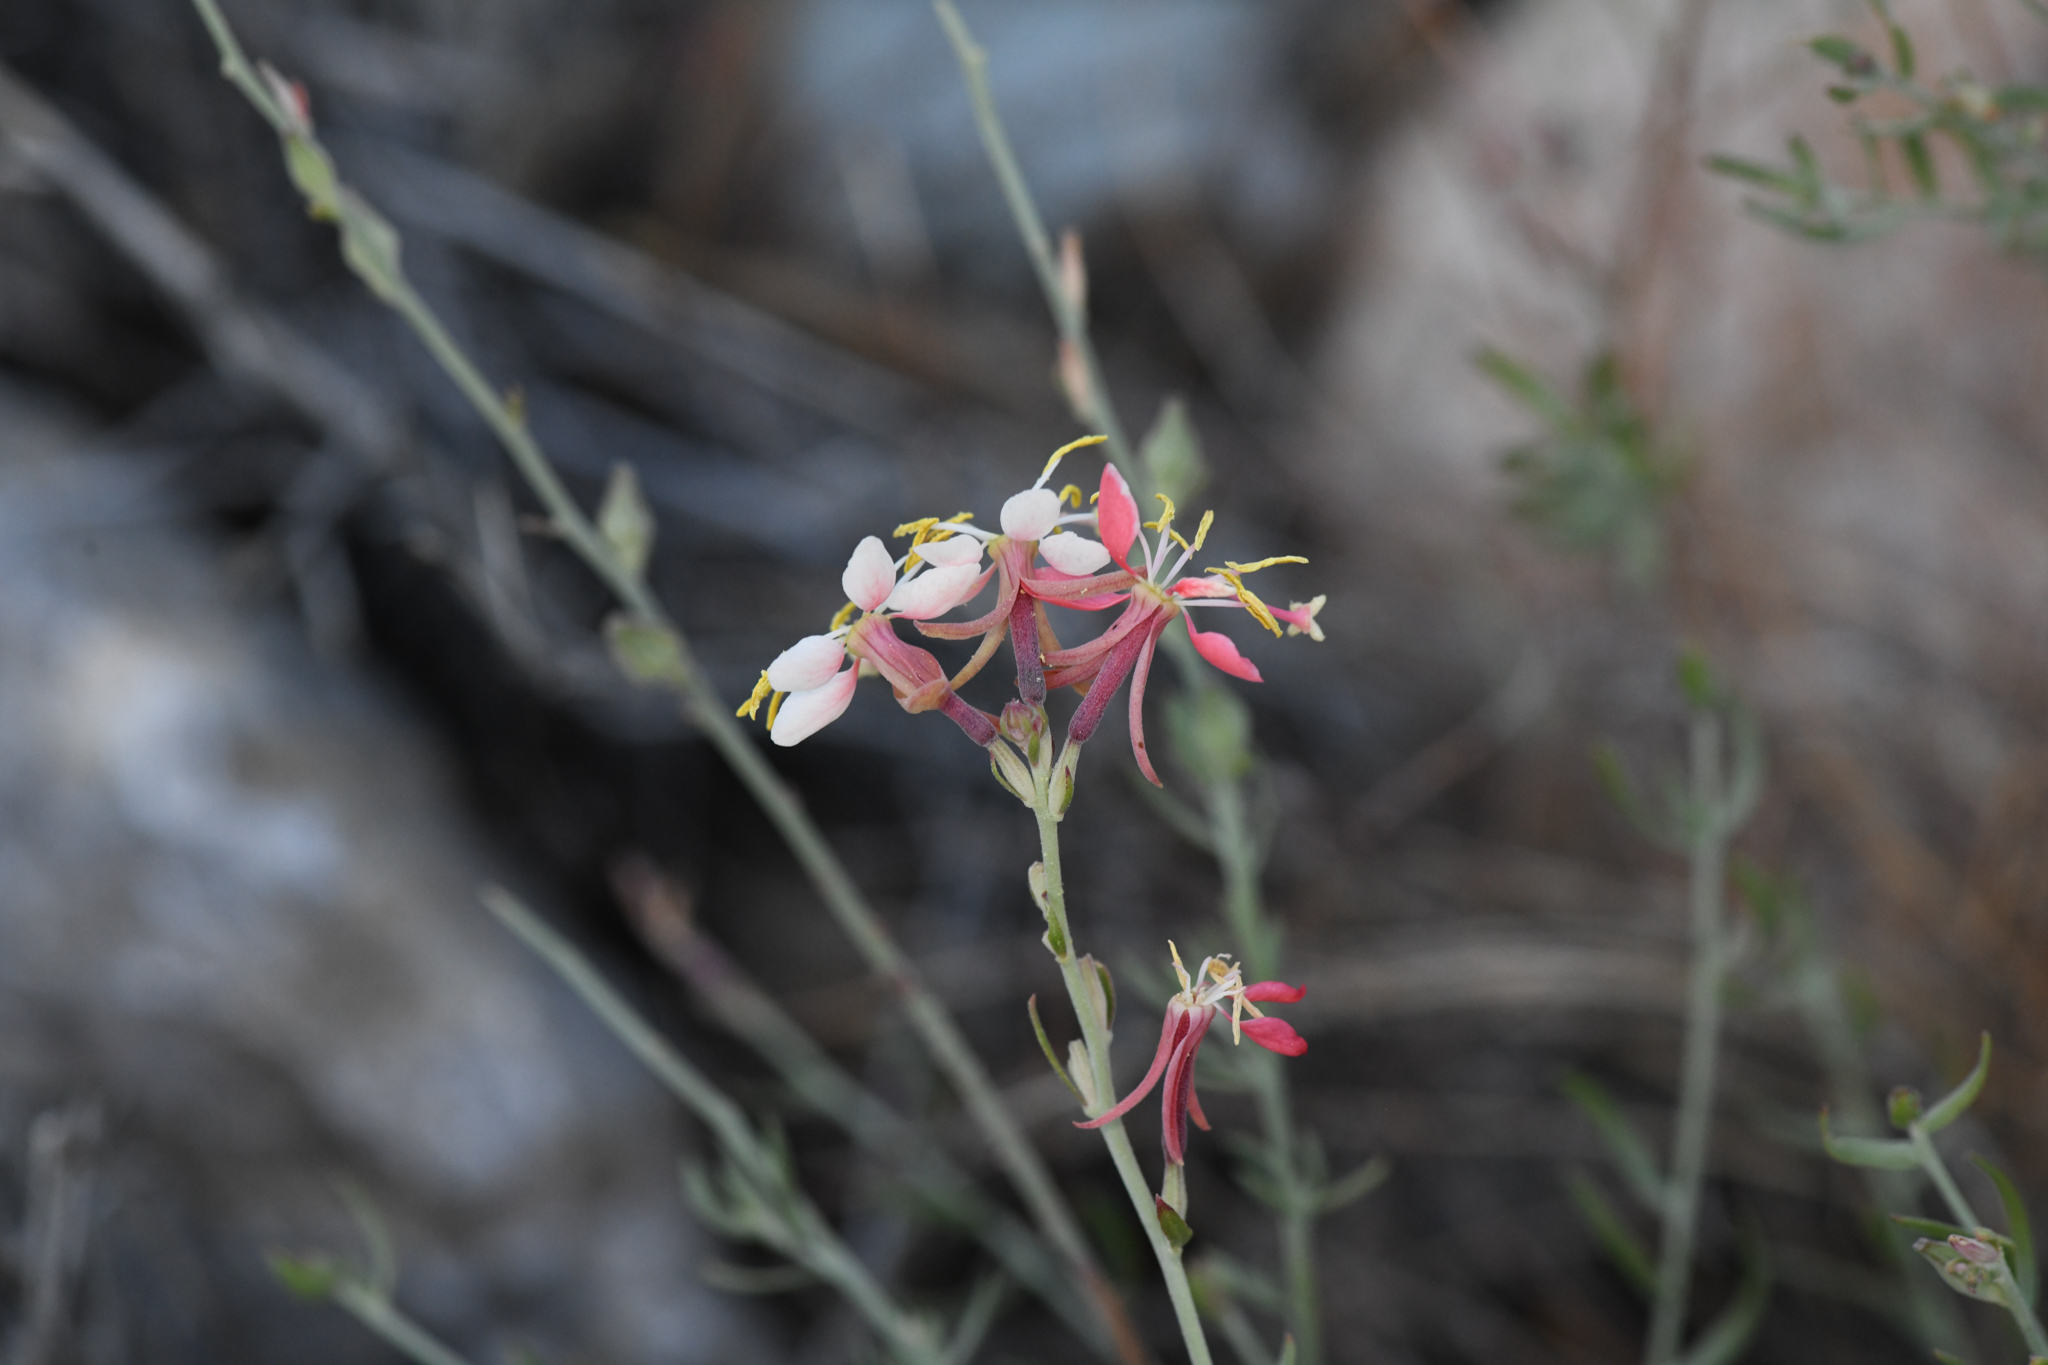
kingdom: Plantae
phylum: Tracheophyta
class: Magnoliopsida
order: Myrtales
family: Onagraceae
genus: Oenothera
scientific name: Oenothera suffrutescens
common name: Scarlet beeblossom
